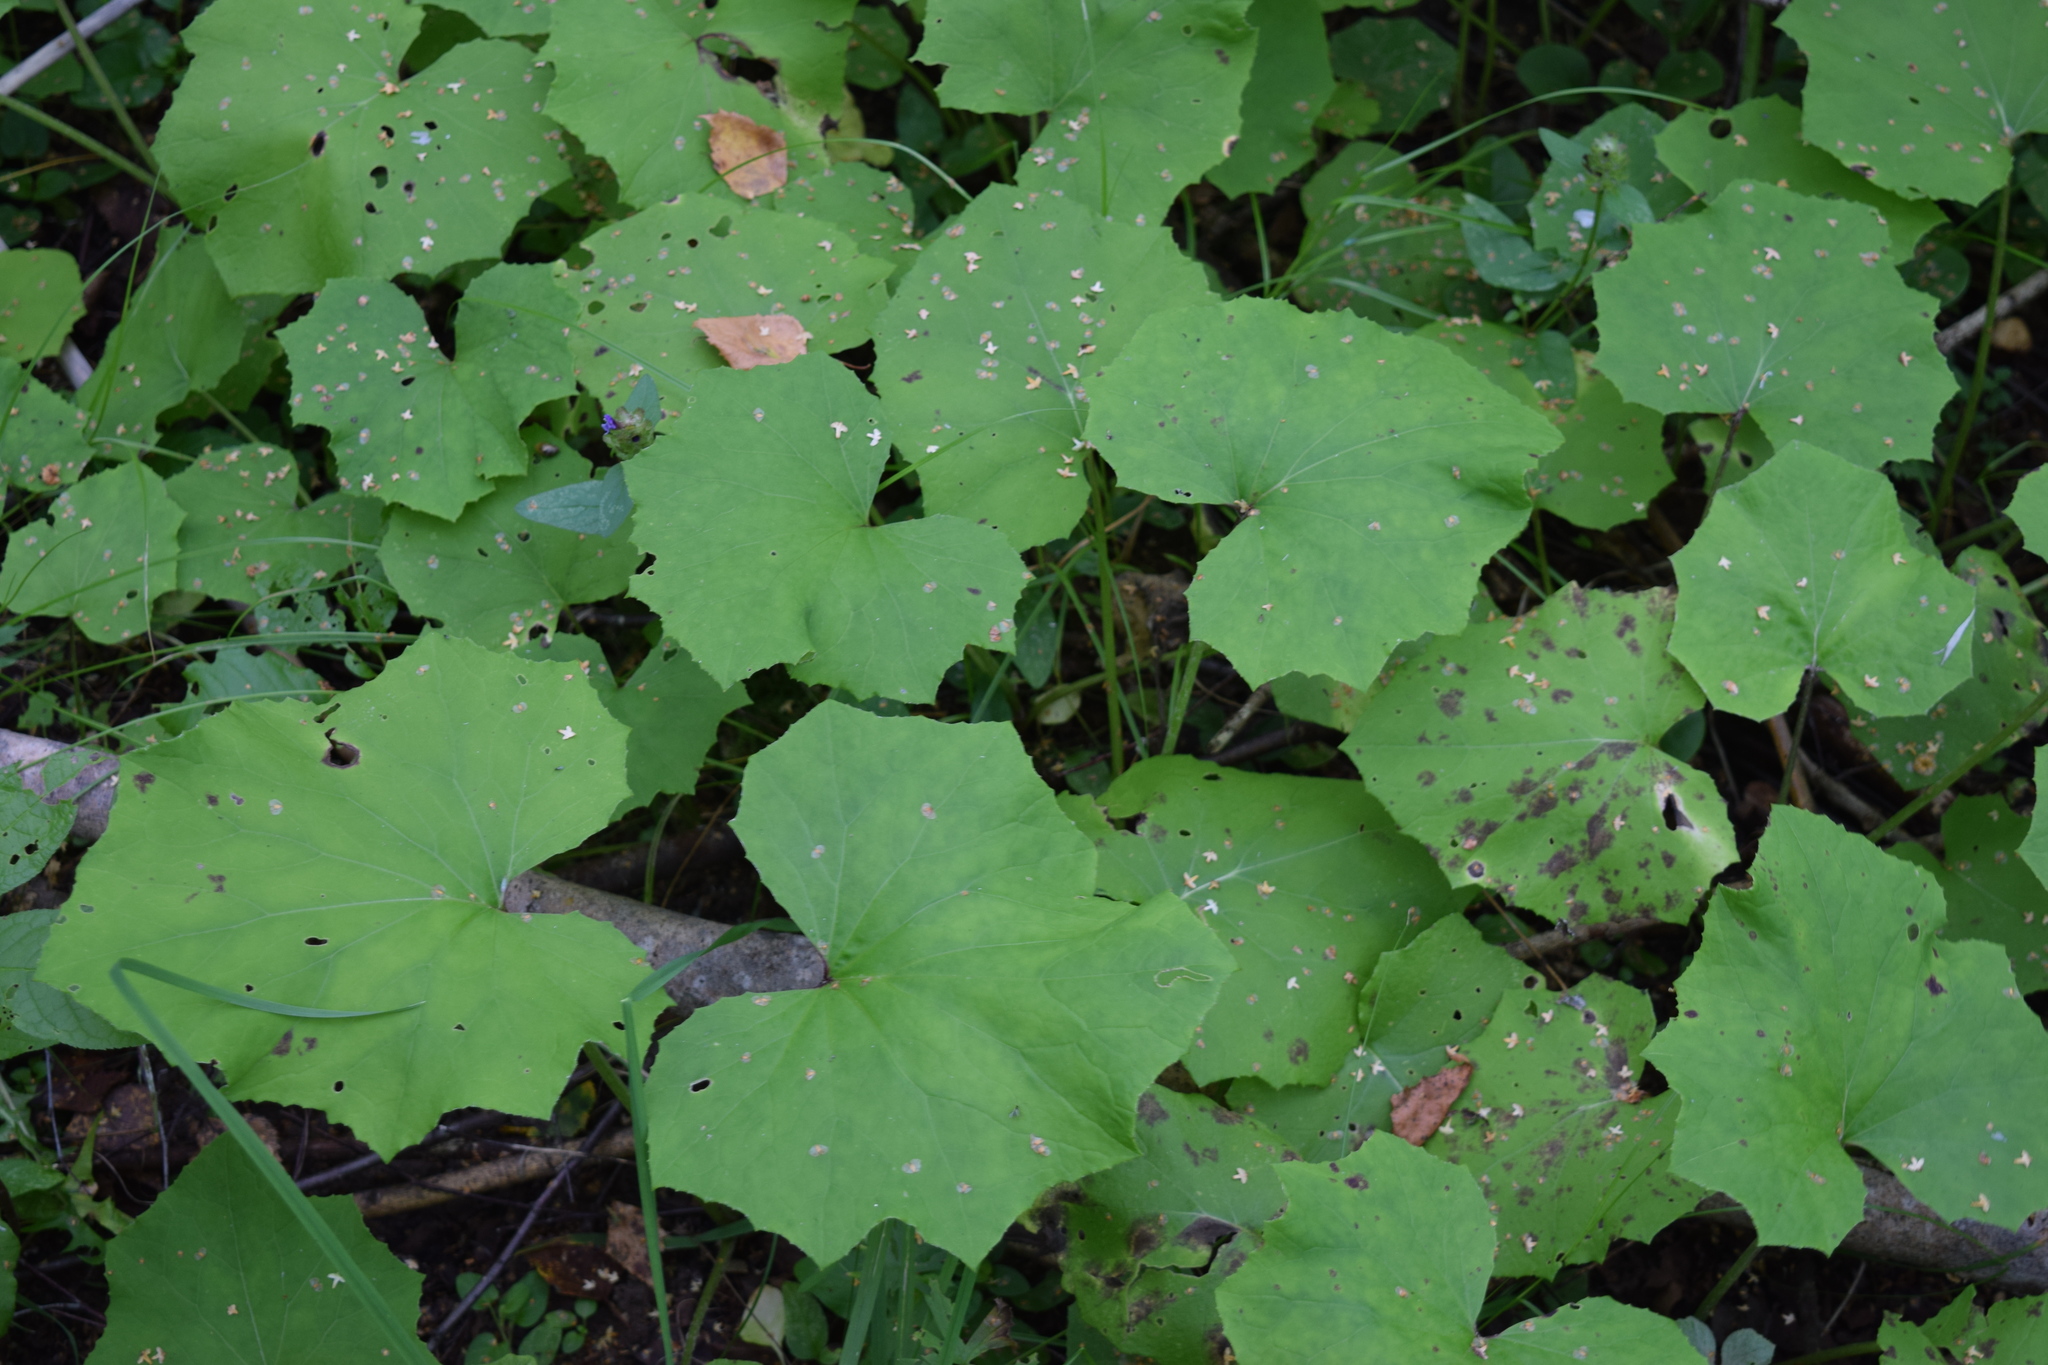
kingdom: Plantae
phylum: Tracheophyta
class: Magnoliopsida
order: Asterales
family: Asteraceae
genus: Tussilago
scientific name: Tussilago farfara
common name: Coltsfoot
